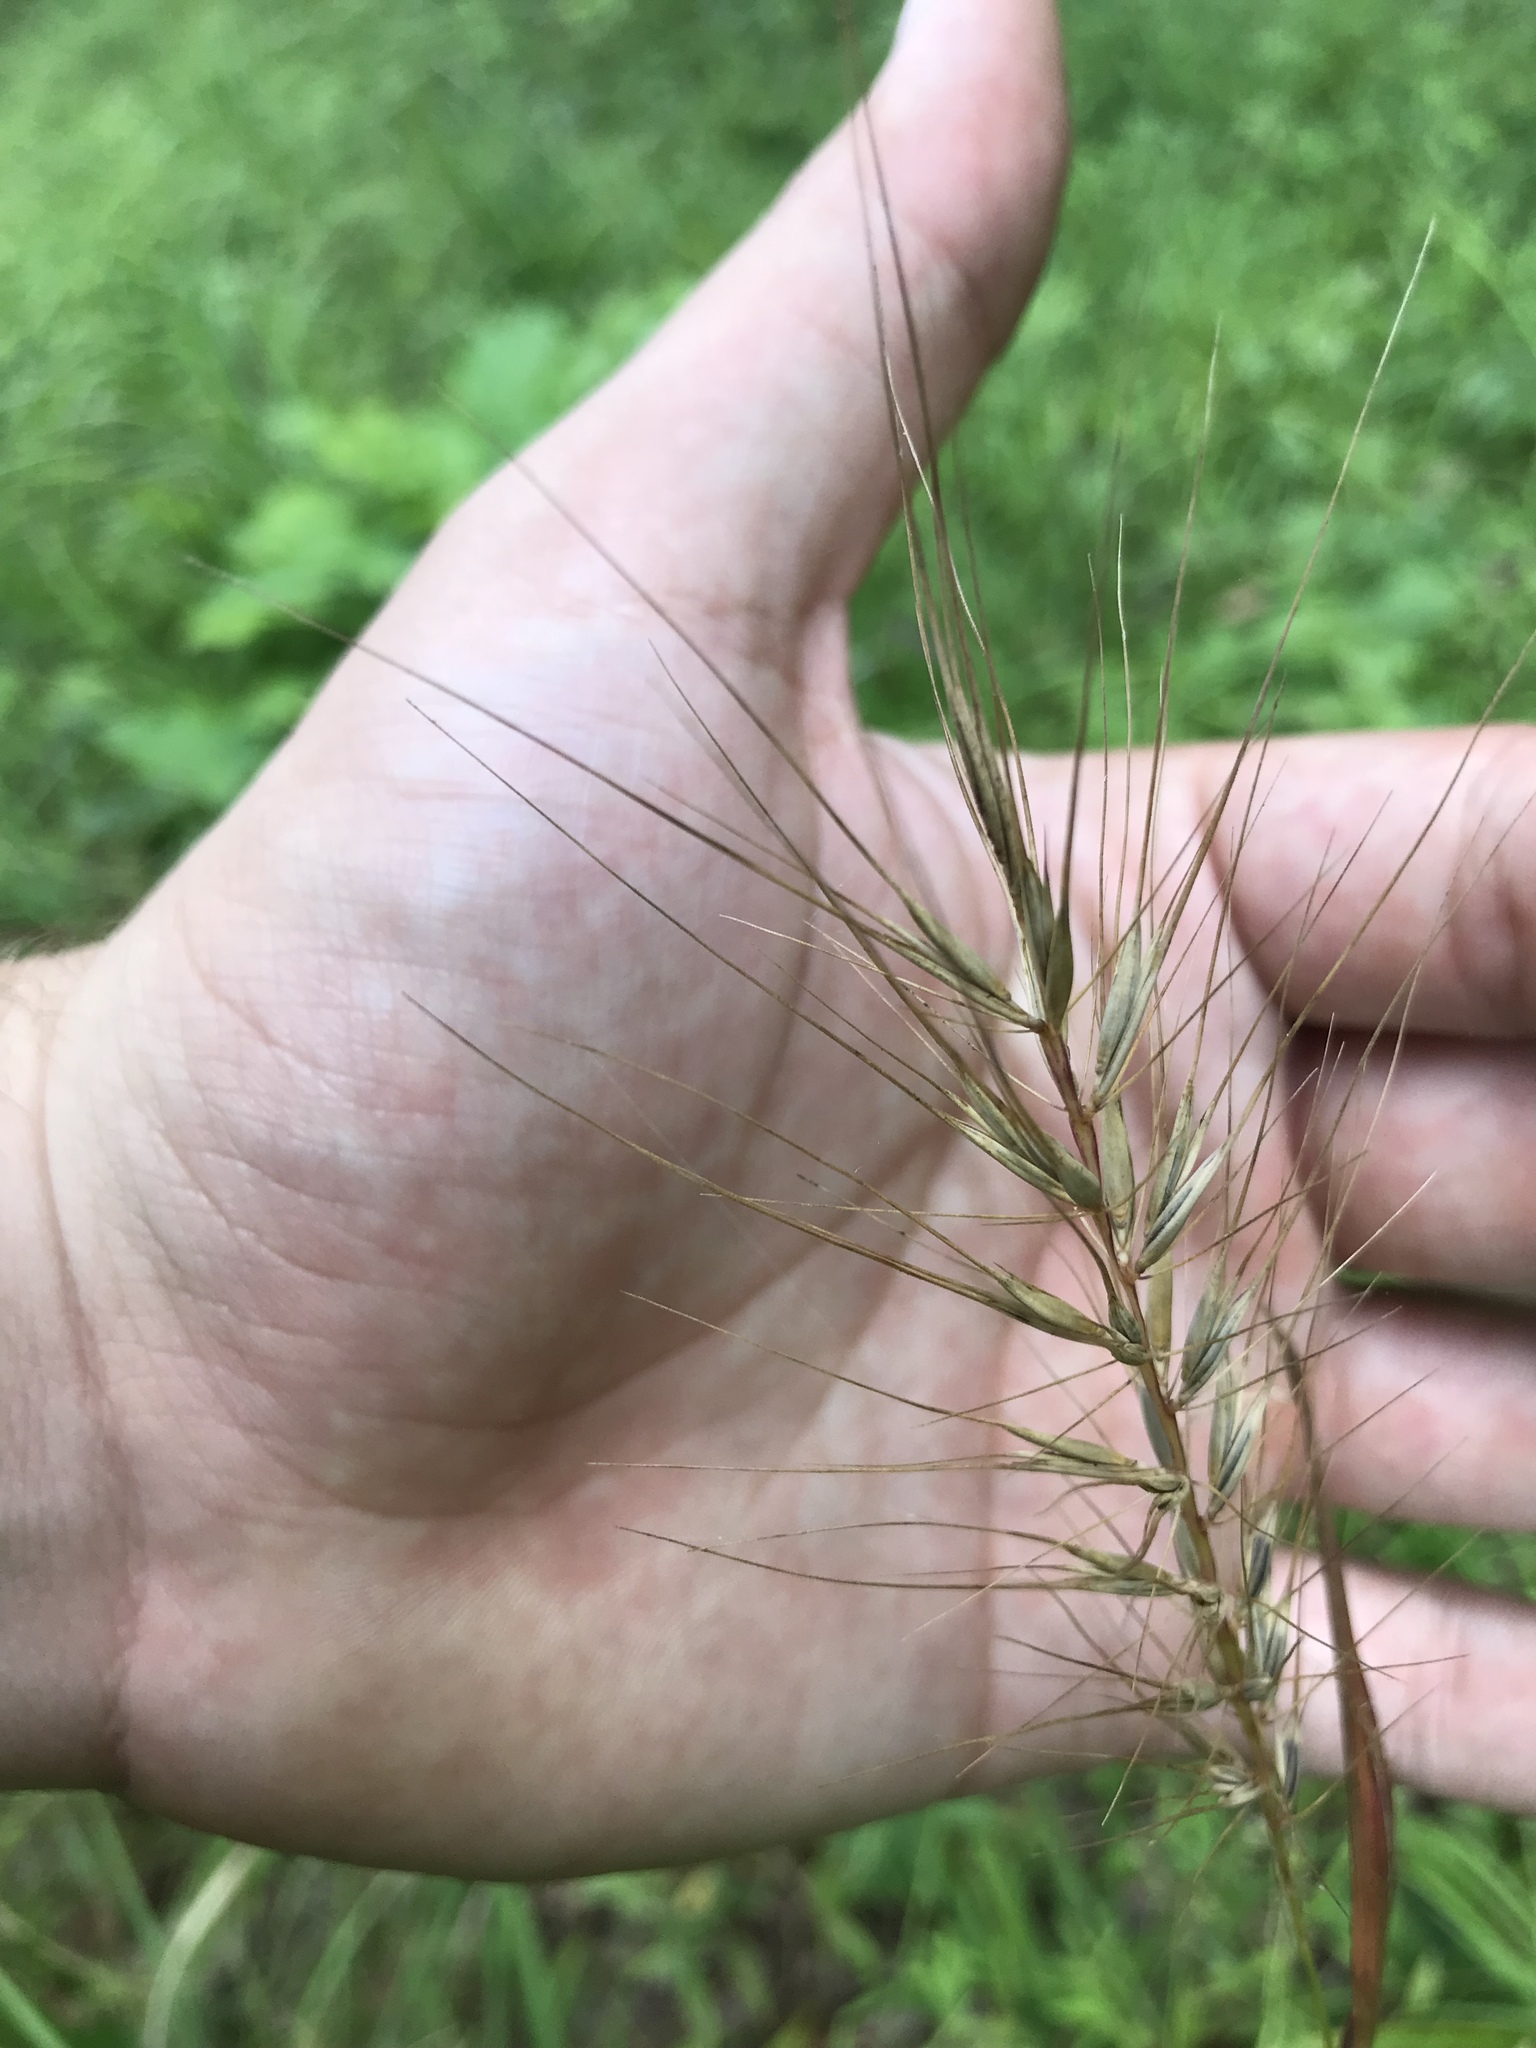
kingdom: Plantae
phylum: Tracheophyta
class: Liliopsida
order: Poales
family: Poaceae
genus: Elymus
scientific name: Elymus hystrix
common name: Bottlebrush grass
